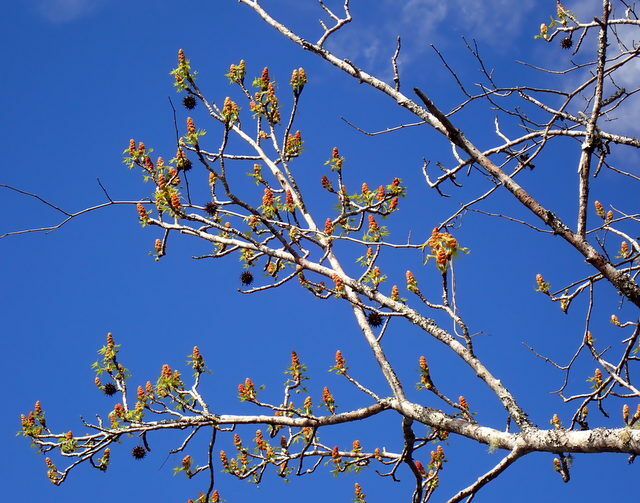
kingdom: Plantae
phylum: Tracheophyta
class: Magnoliopsida
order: Saxifragales
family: Altingiaceae
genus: Liquidambar
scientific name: Liquidambar styraciflua
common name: Sweet gum
